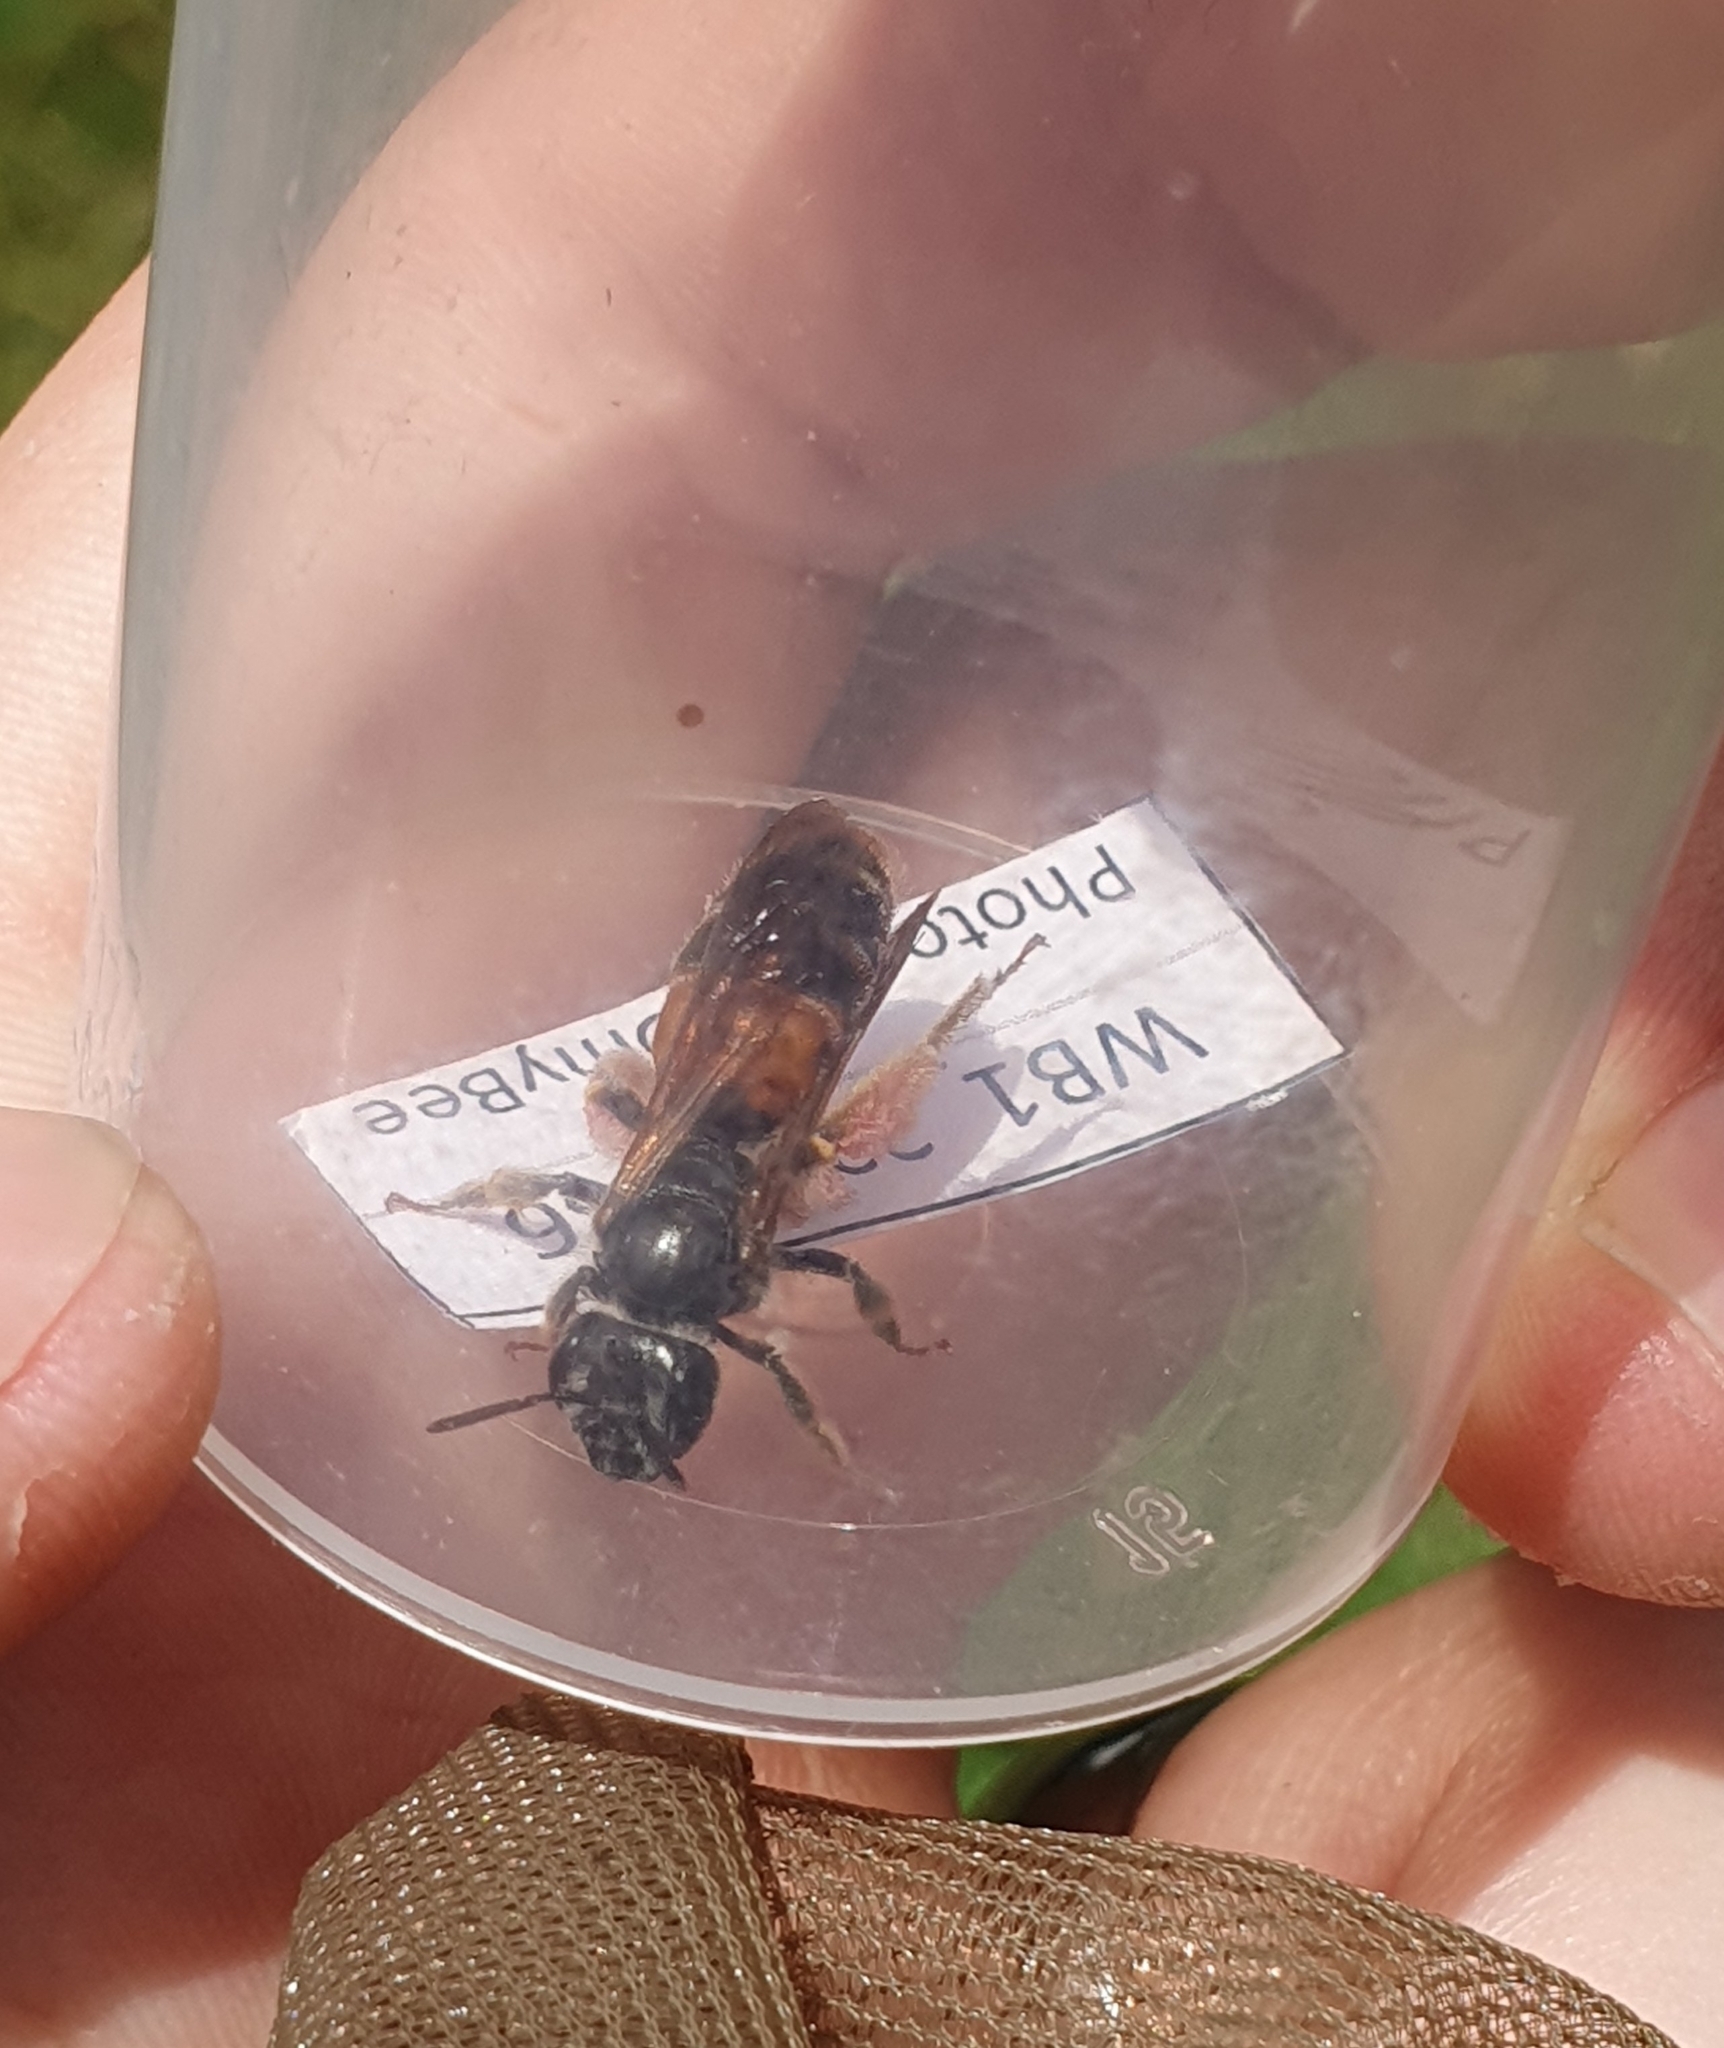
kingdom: Animalia
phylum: Arthropoda
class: Insecta
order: Hymenoptera
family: Andrenidae
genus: Andrena
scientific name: Andrena hattorfiana
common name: Large scabious mining bee
